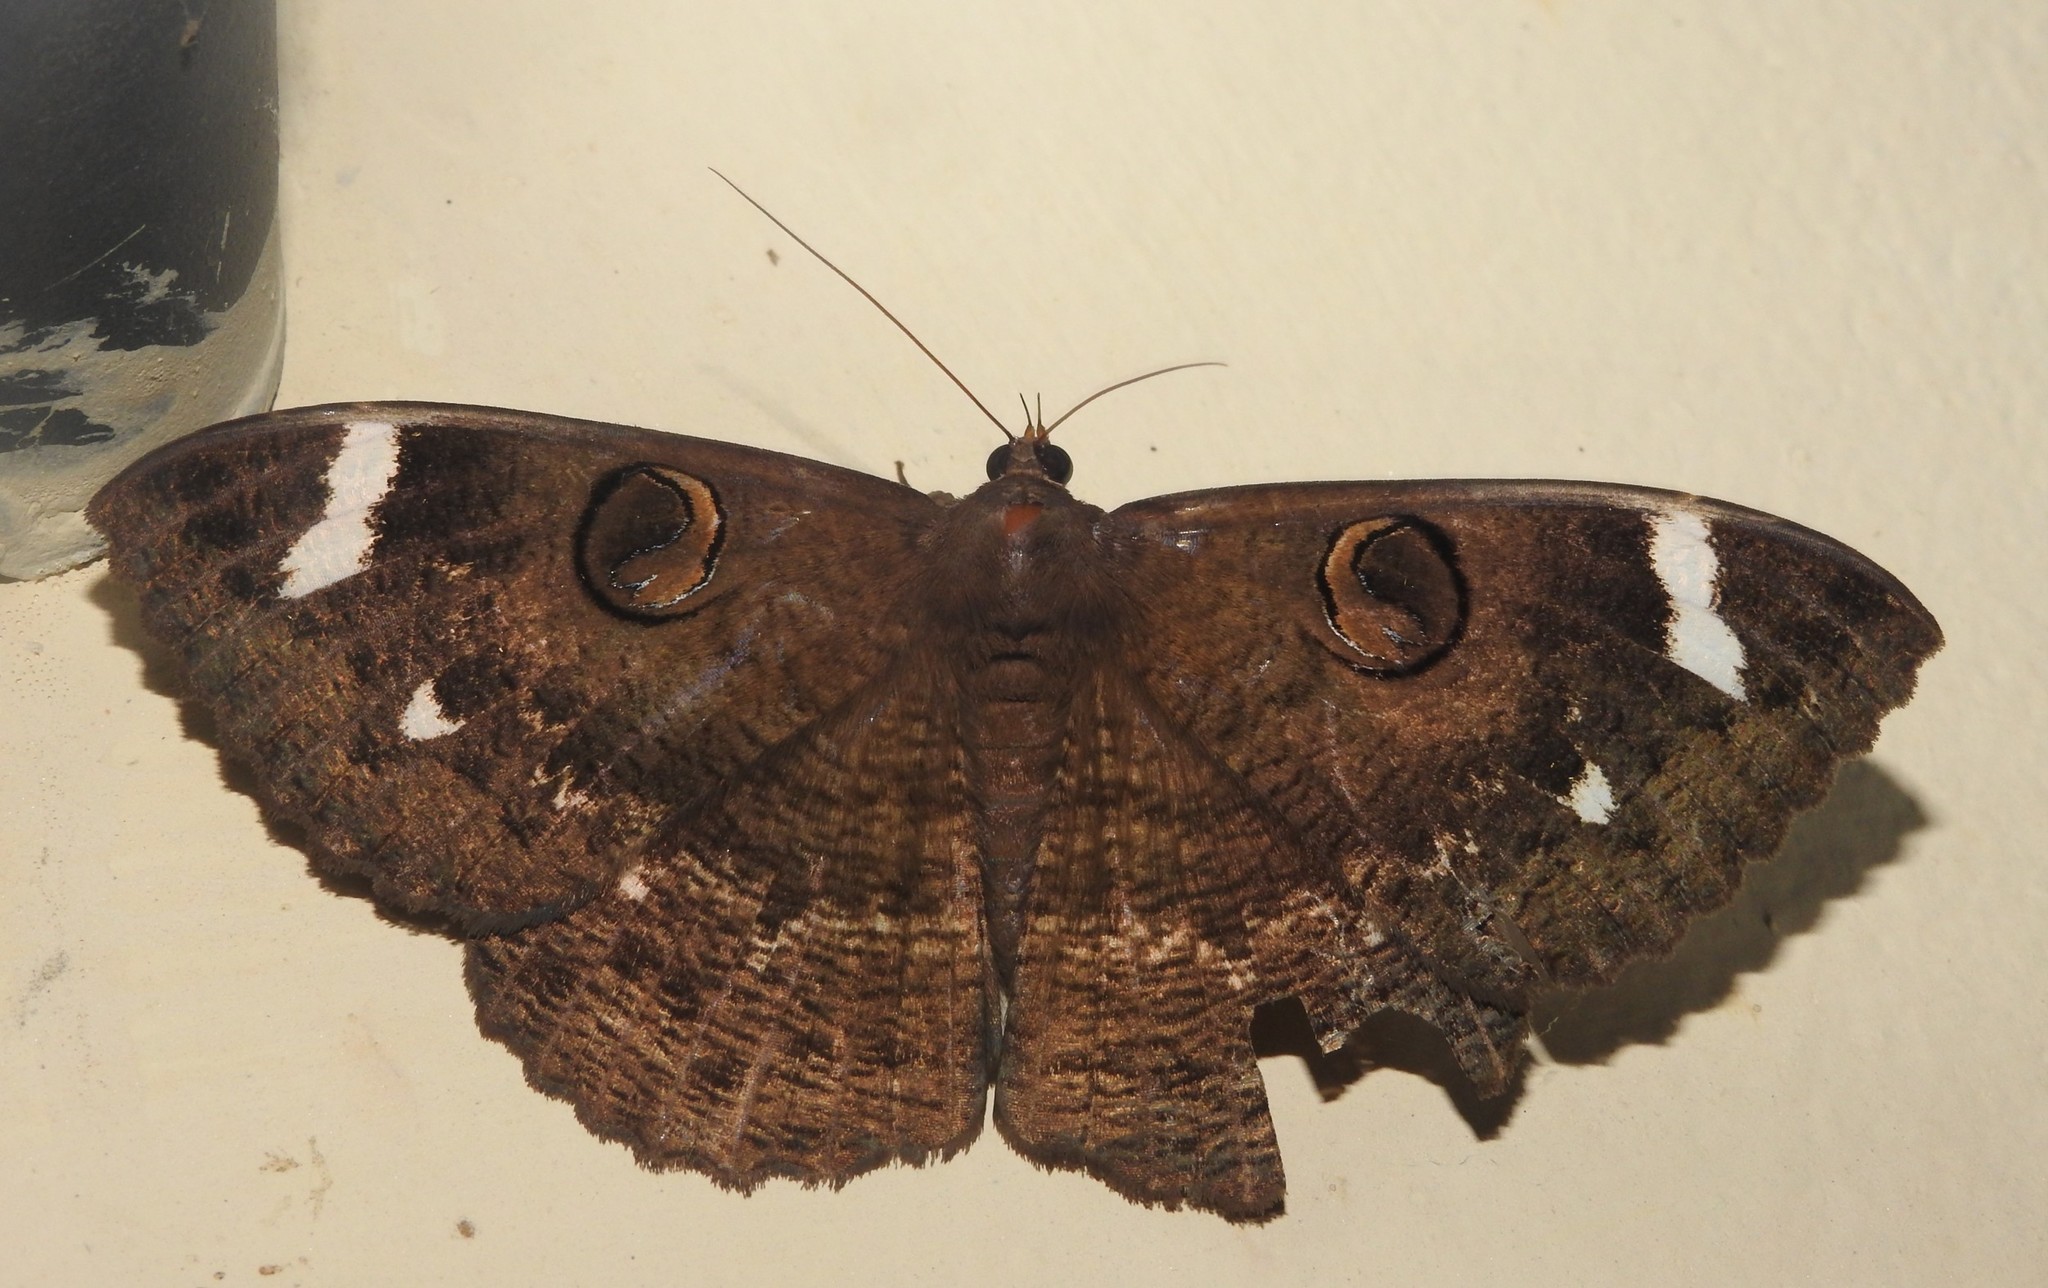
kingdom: Animalia
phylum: Arthropoda
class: Insecta
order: Lepidoptera
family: Erebidae
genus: Erebus
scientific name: Erebus hieroglyphica
